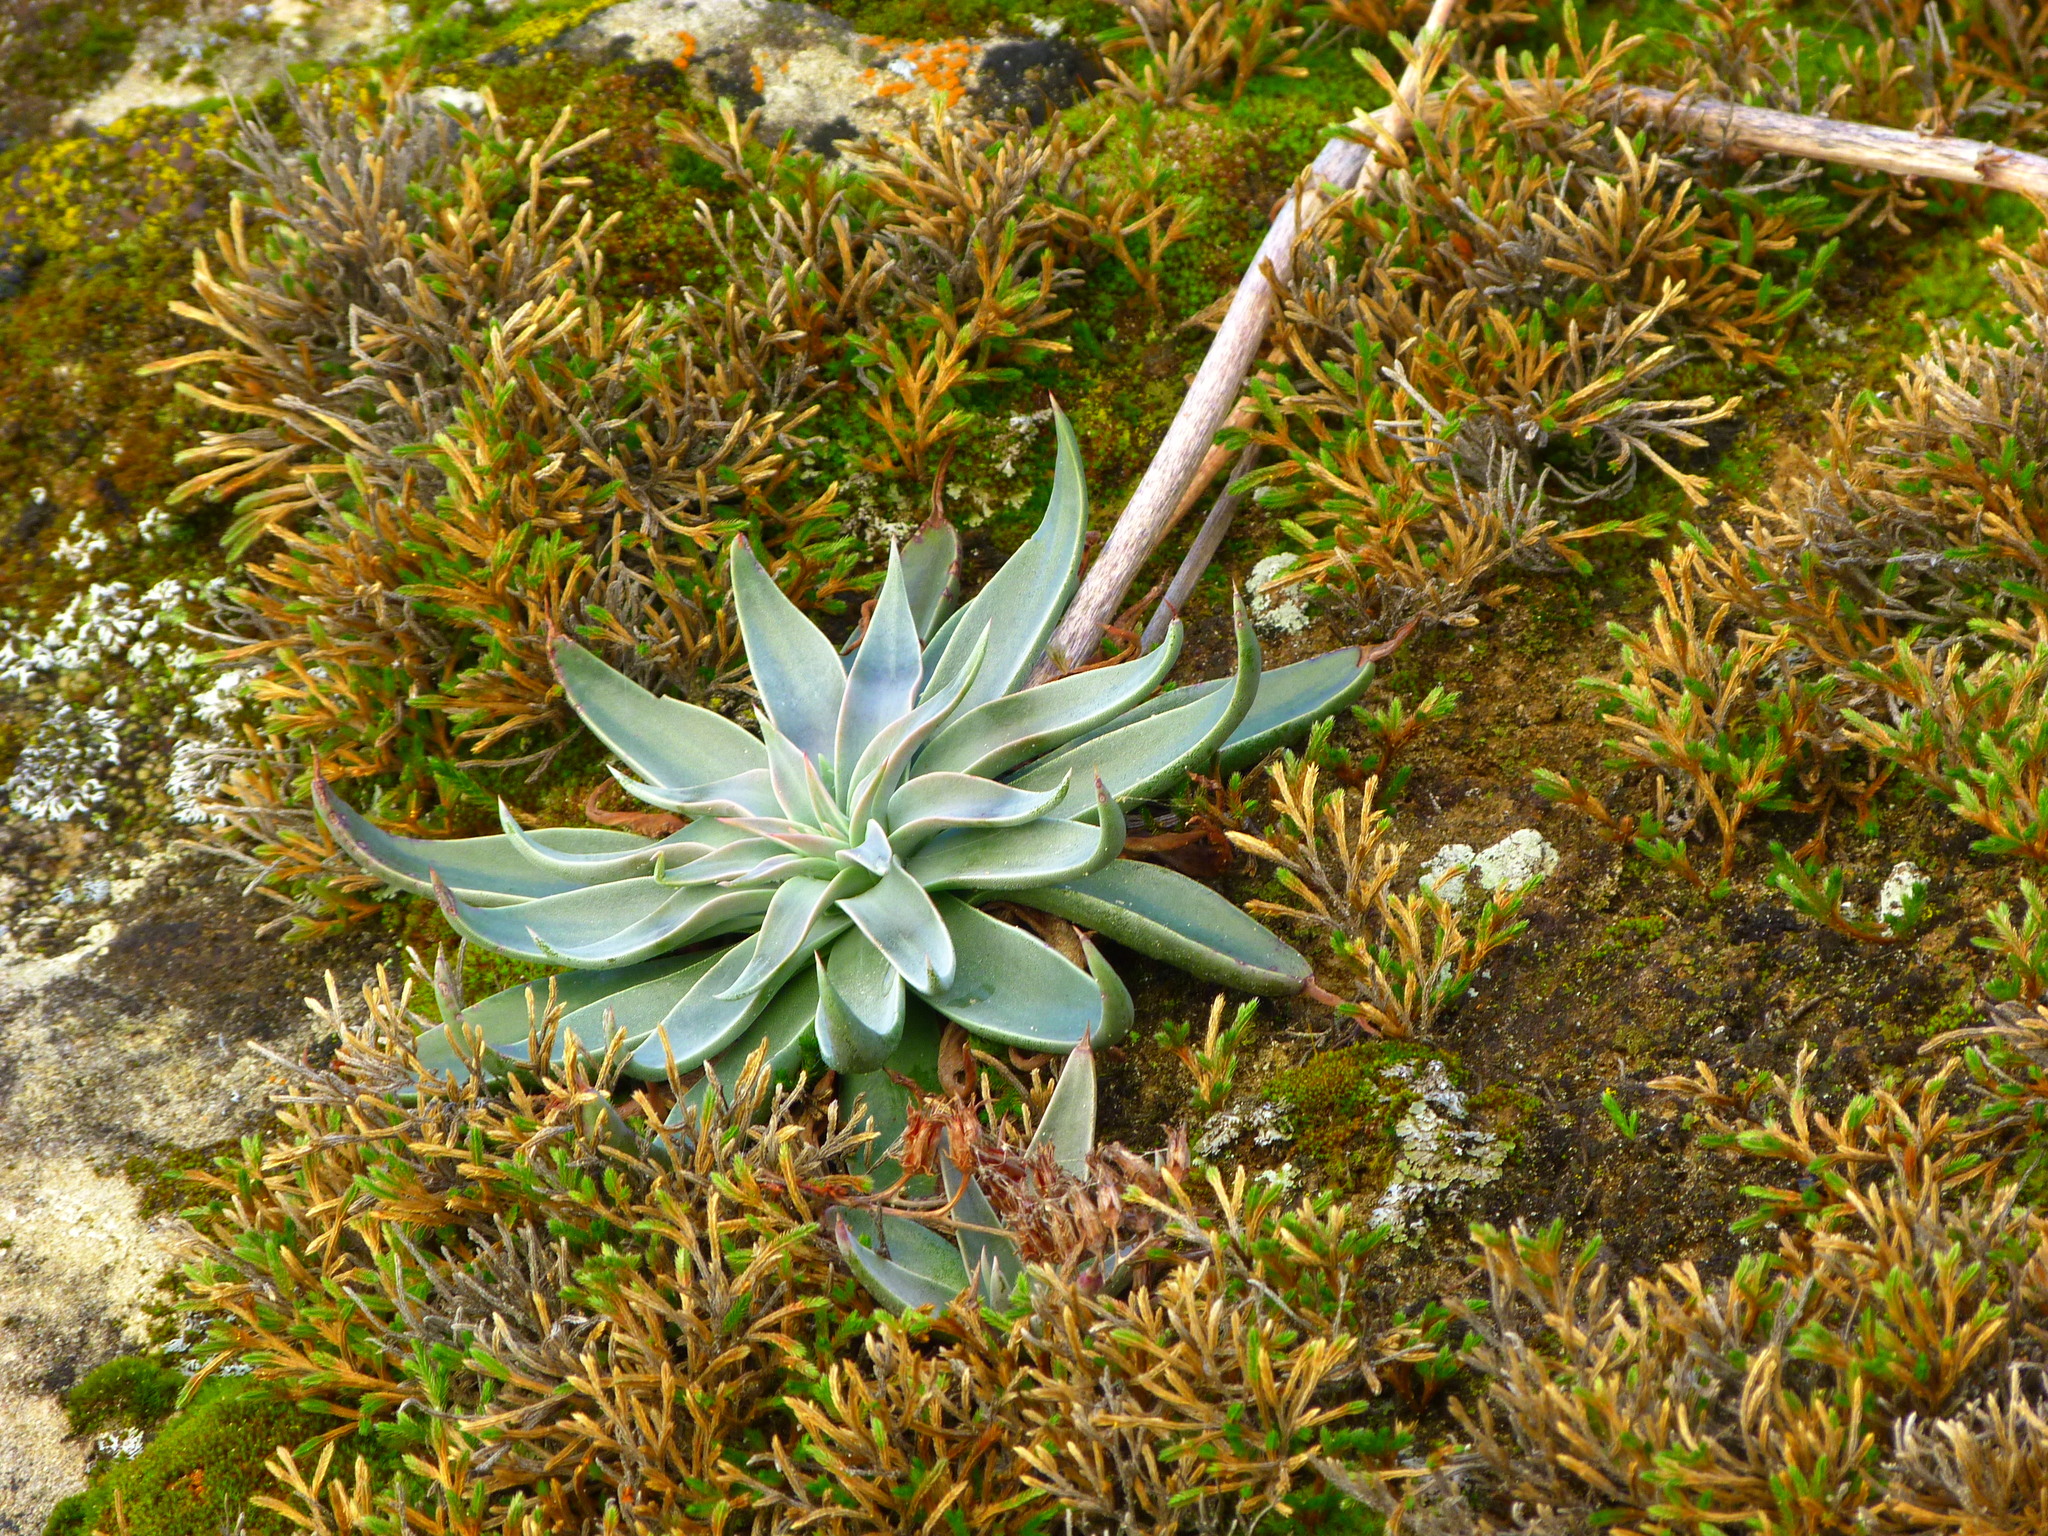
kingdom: Plantae
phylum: Tracheophyta
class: Magnoliopsida
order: Saxifragales
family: Crassulaceae
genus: Dudleya
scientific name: Dudleya lanceolata
